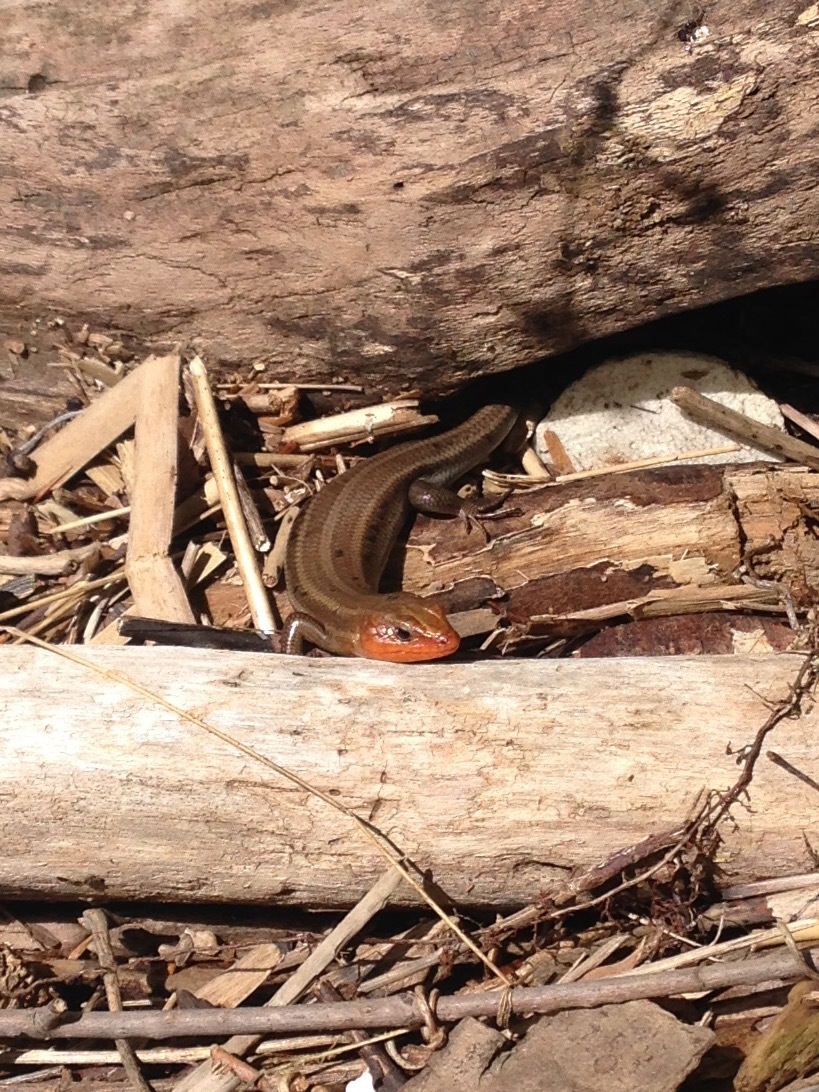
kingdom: Animalia
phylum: Chordata
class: Squamata
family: Scincidae
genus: Plestiodon
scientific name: Plestiodon fasciatus
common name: Five-lined skink
